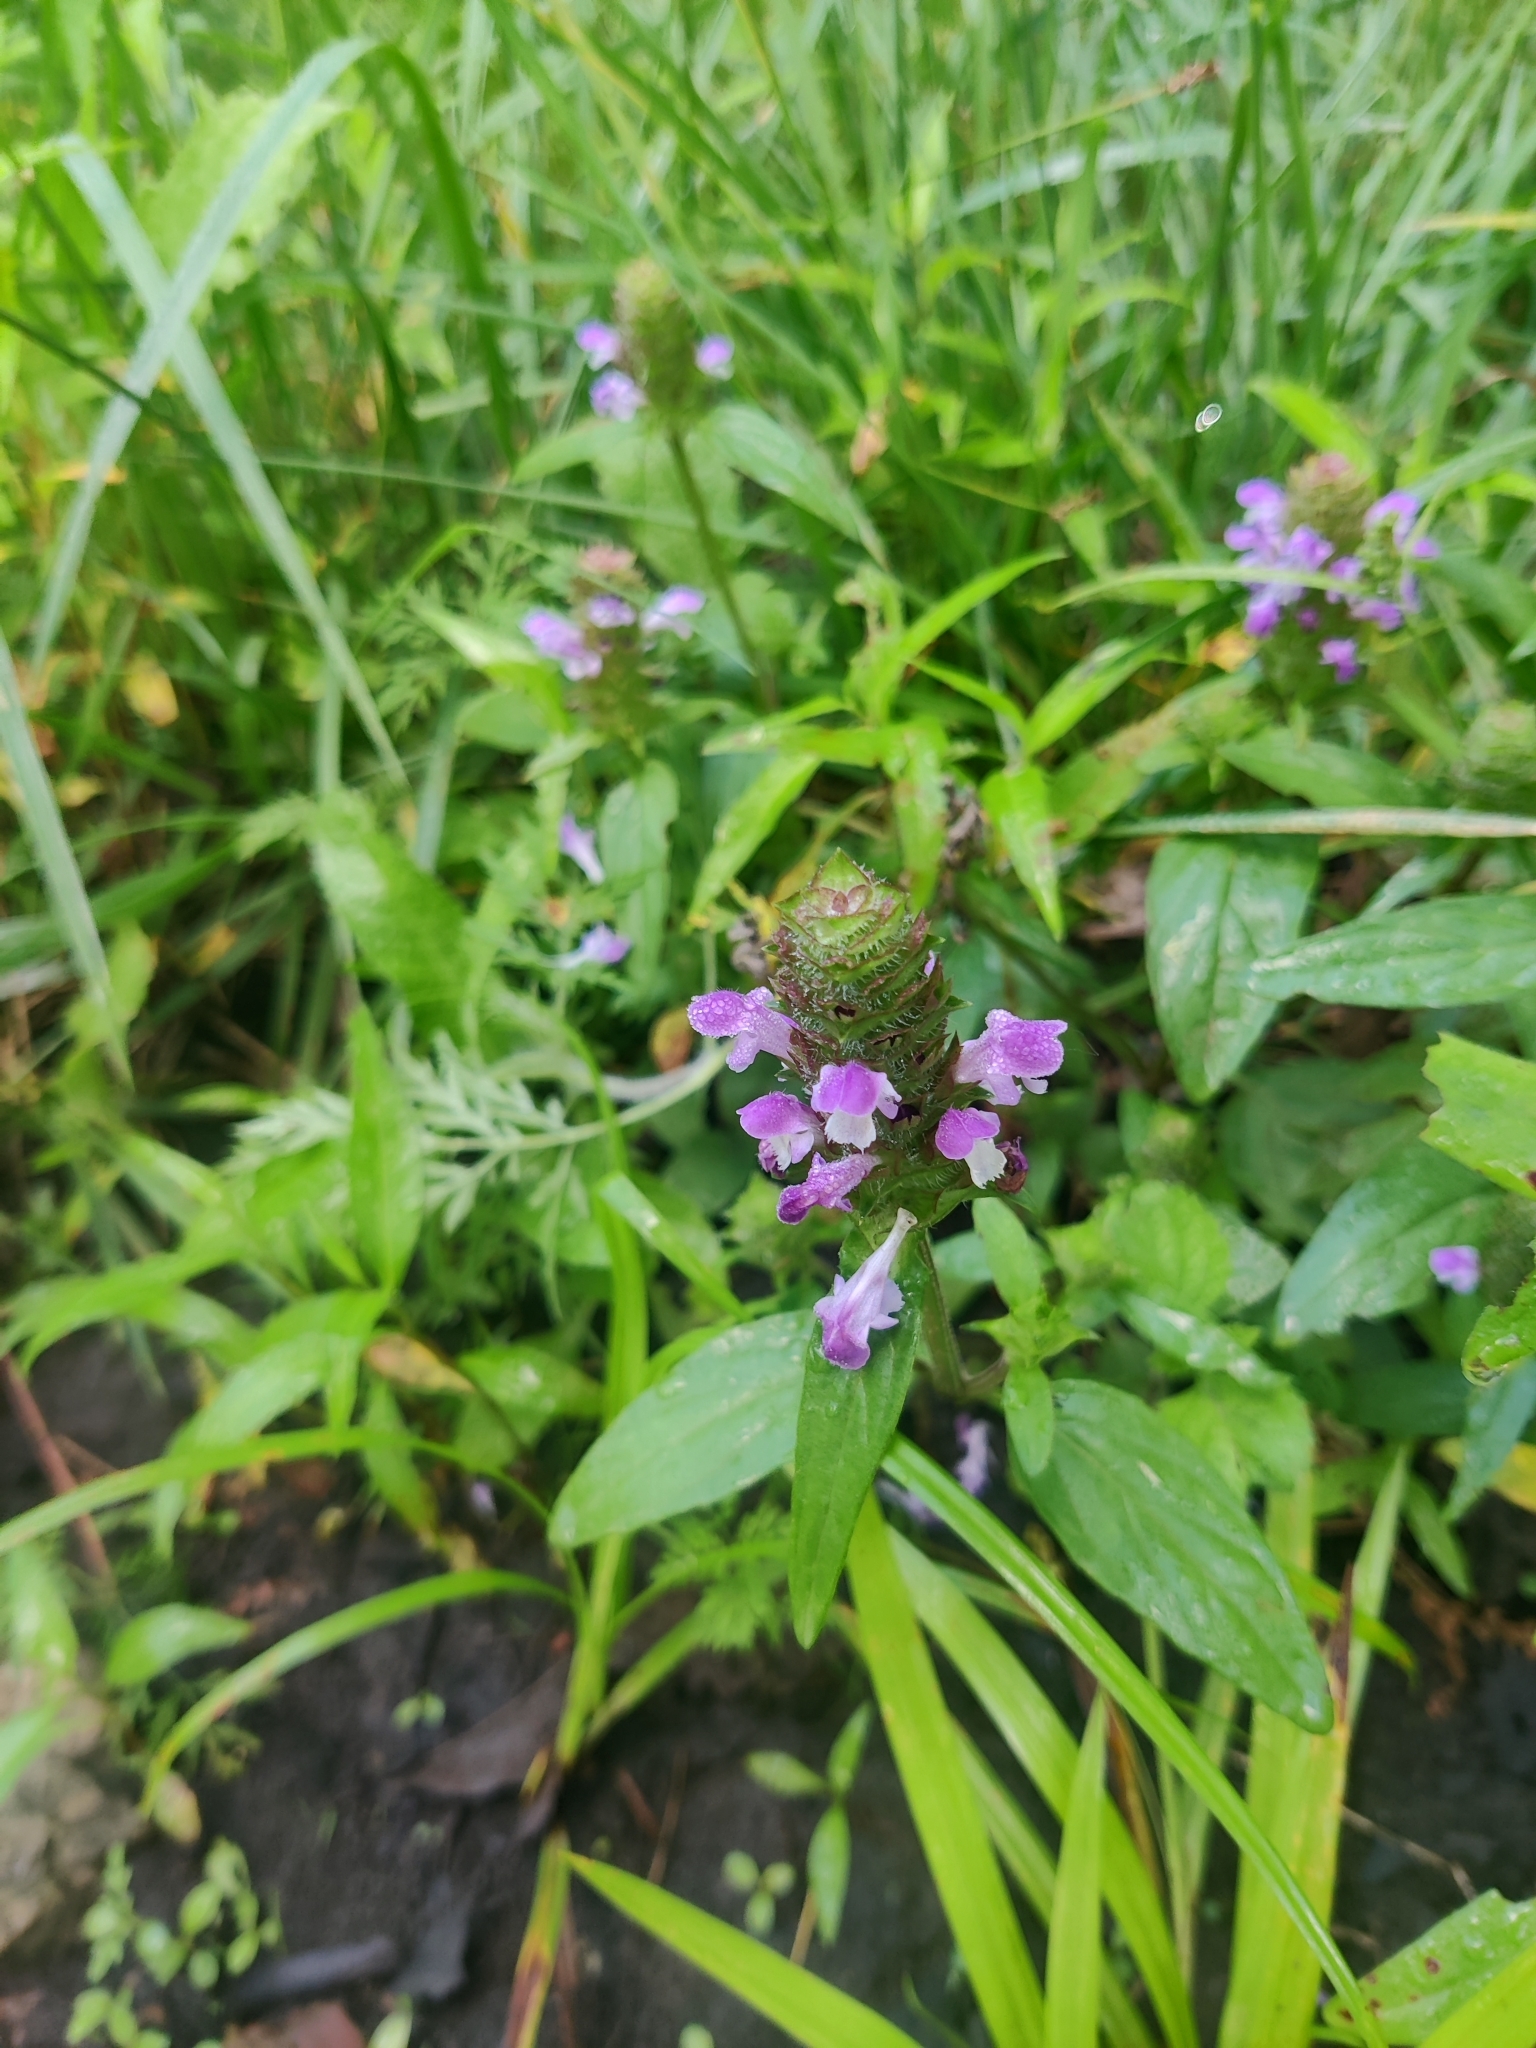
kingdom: Plantae
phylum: Tracheophyta
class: Magnoliopsida
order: Lamiales
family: Lamiaceae
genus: Prunella
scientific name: Prunella vulgaris
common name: Heal-all
